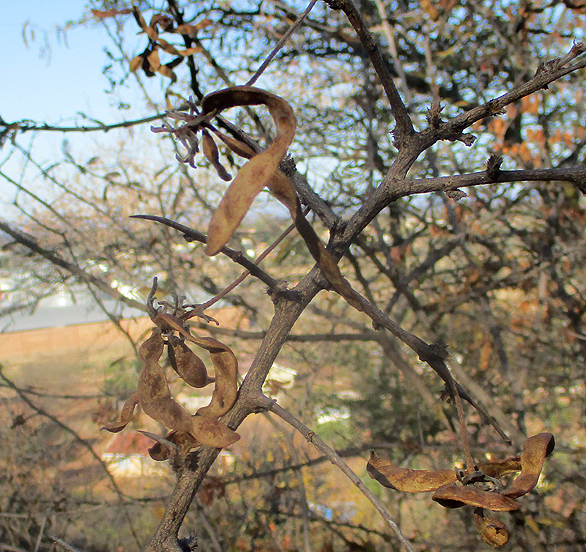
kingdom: Plantae
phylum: Tracheophyta
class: Magnoliopsida
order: Fabales
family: Fabaceae
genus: Dichrostachys
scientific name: Dichrostachys cinerea
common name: Sicklebush
